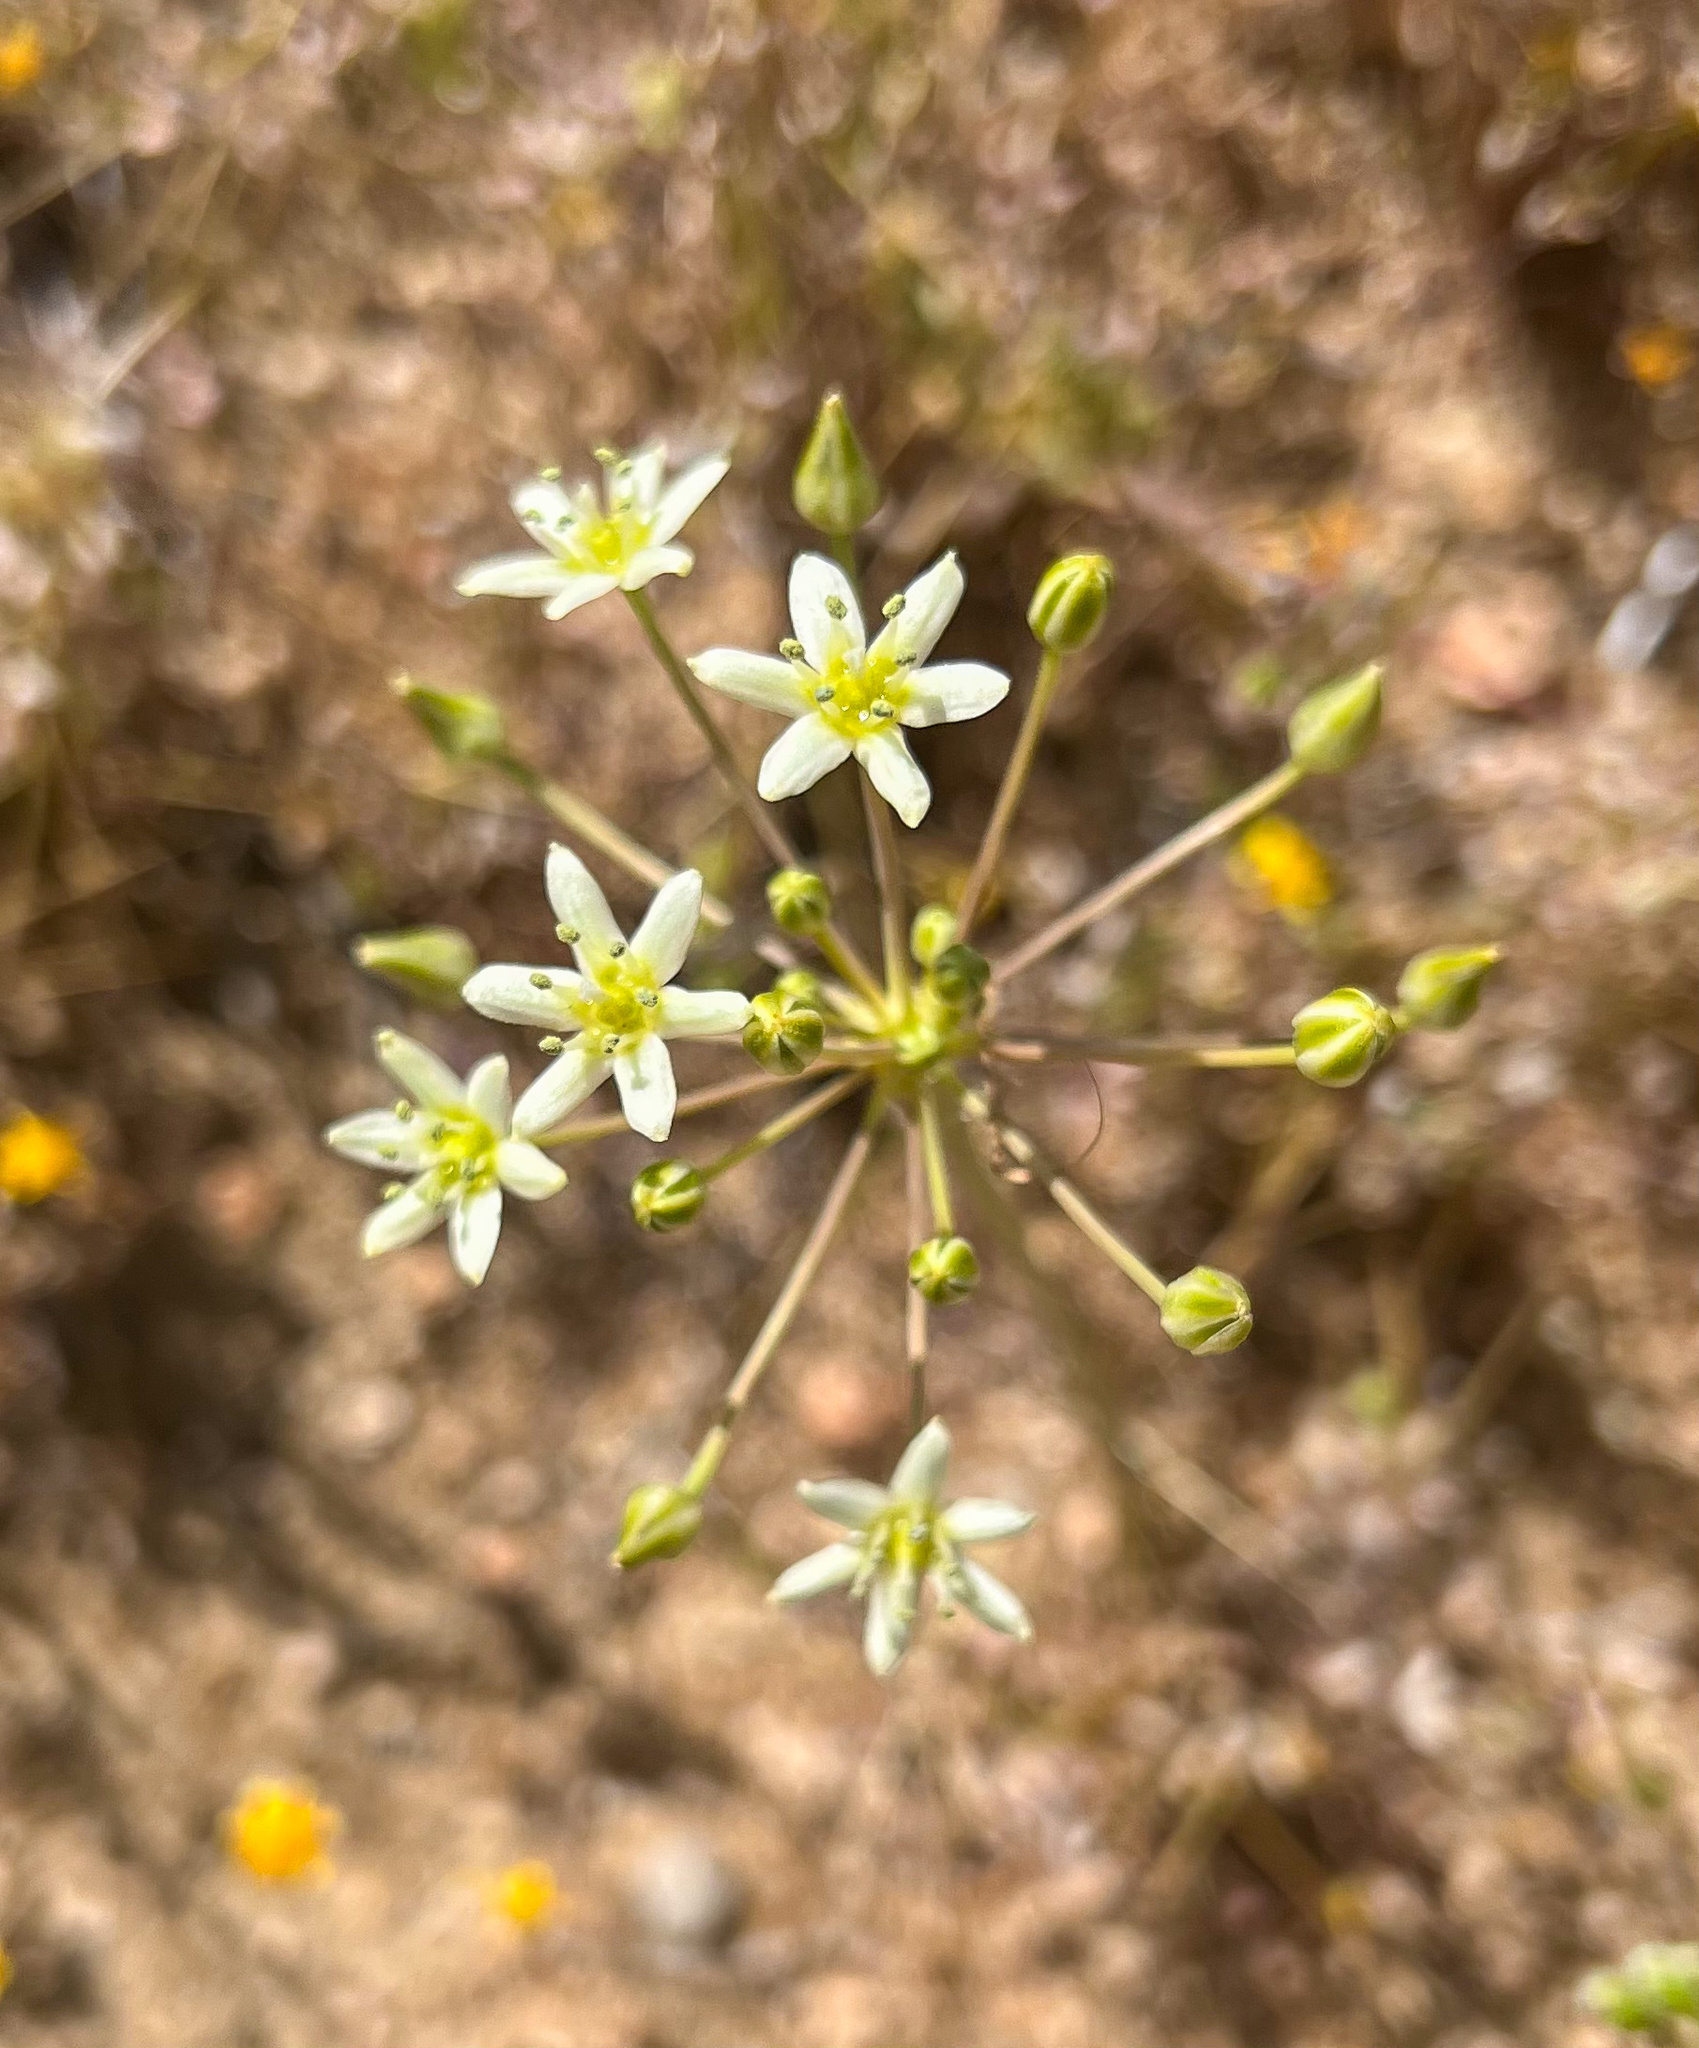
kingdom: Plantae
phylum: Tracheophyta
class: Liliopsida
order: Asparagales
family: Asparagaceae
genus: Muilla
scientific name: Muilla maritima
